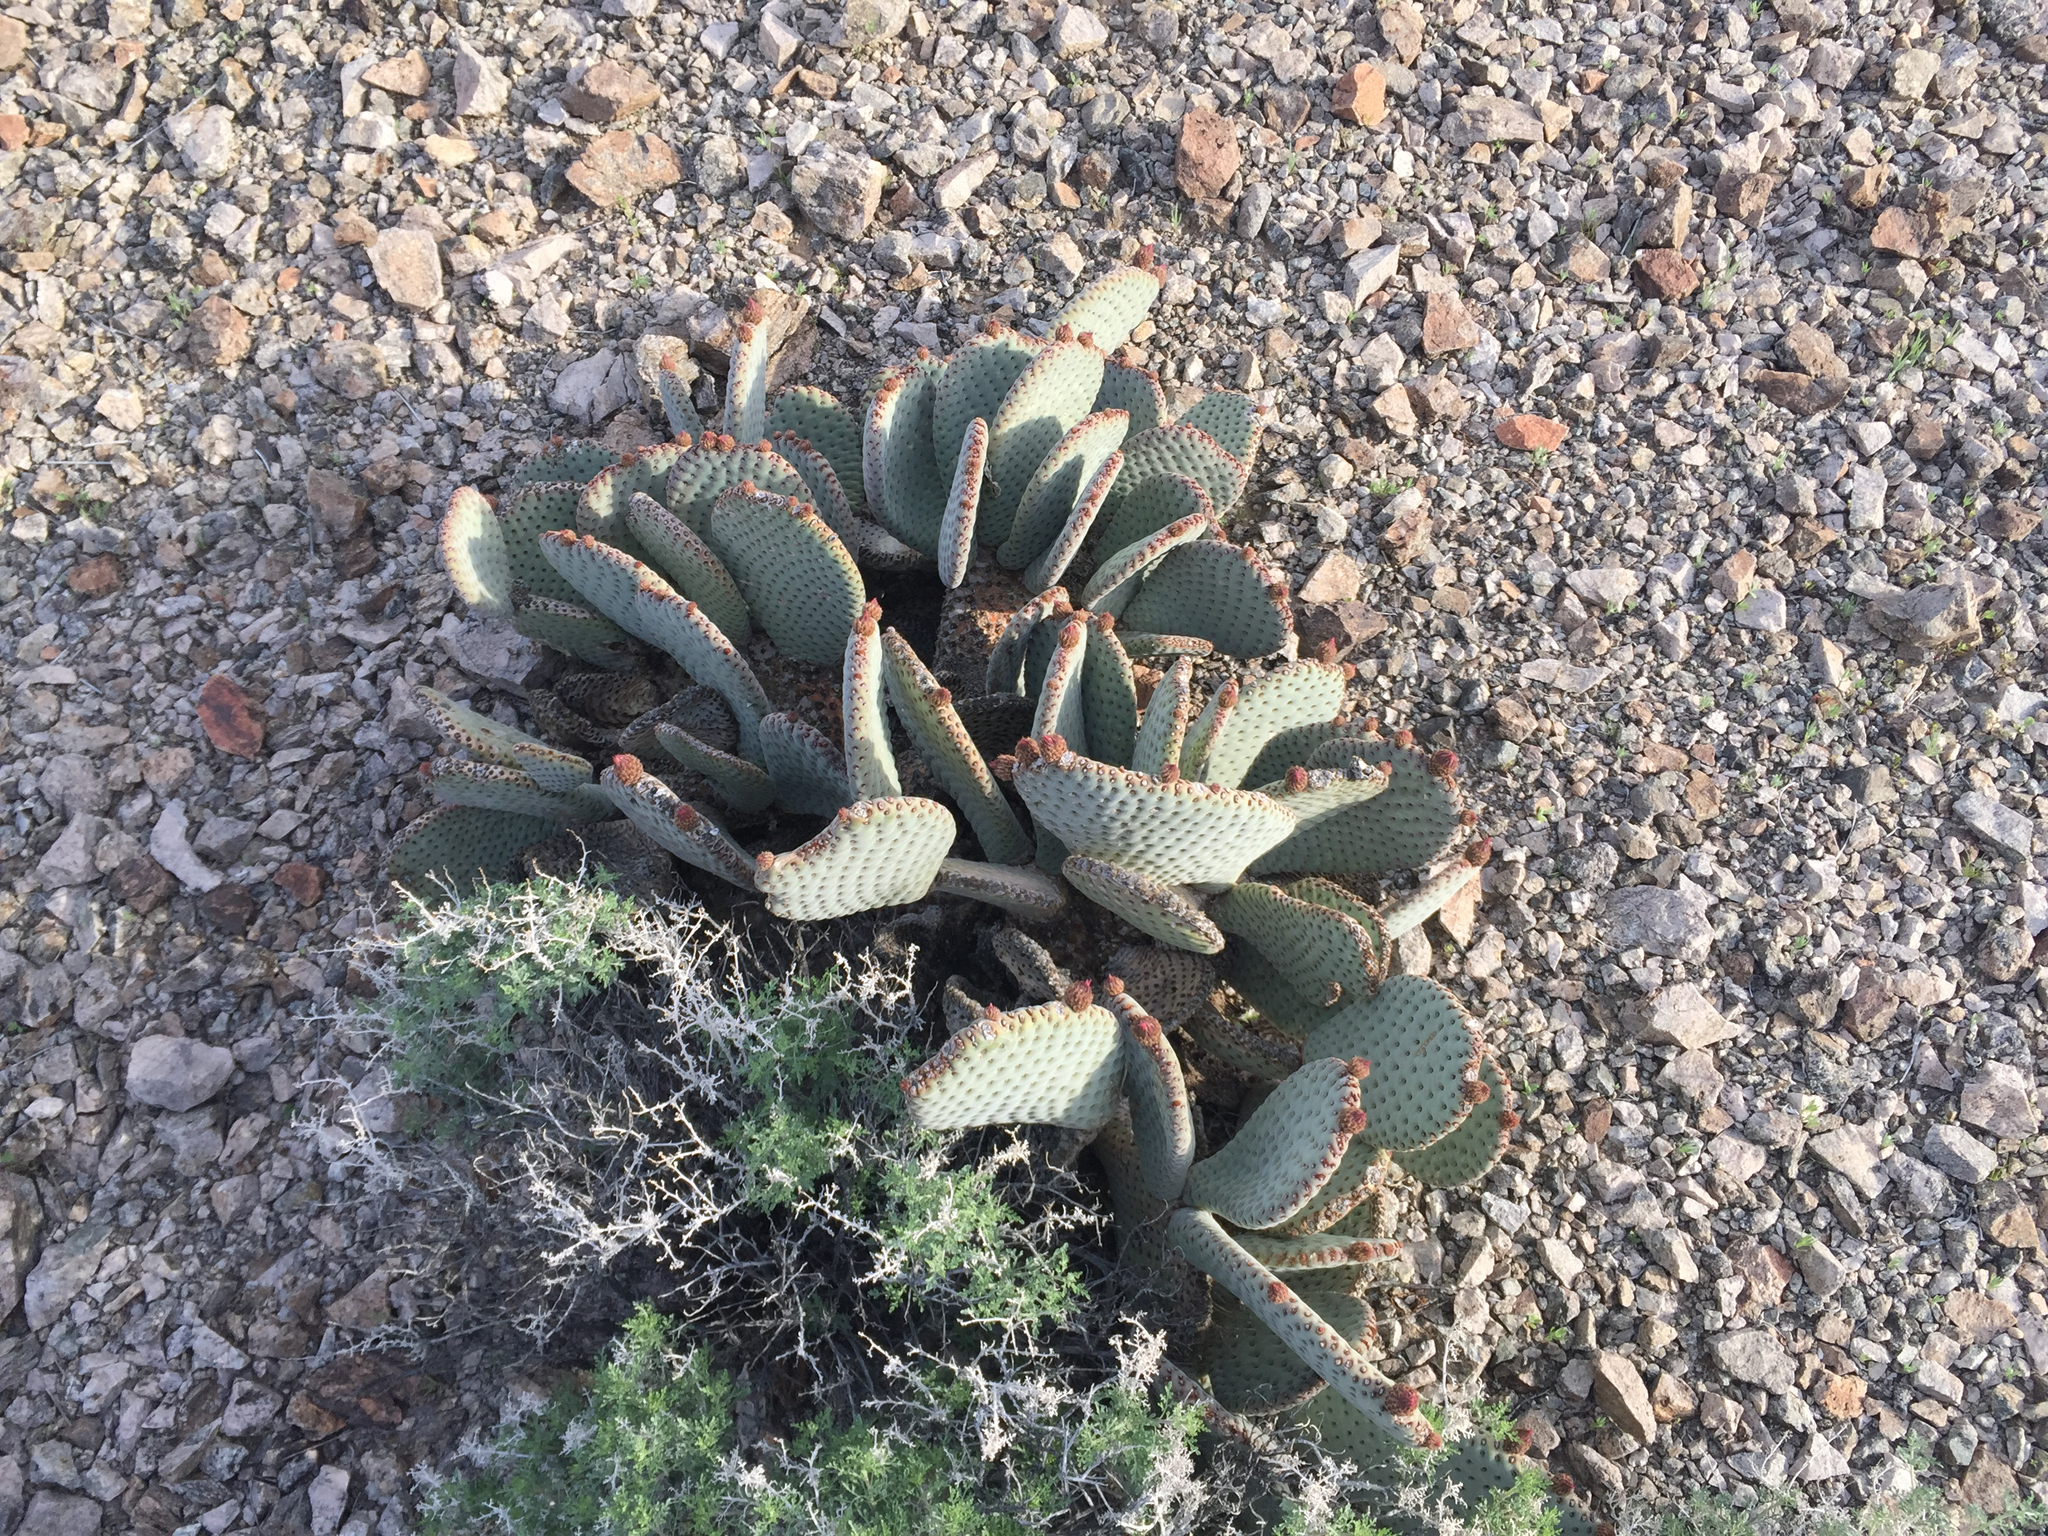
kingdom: Plantae
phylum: Tracheophyta
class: Magnoliopsida
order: Caryophyllales
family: Cactaceae
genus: Opuntia
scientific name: Opuntia basilaris
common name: Beavertail prickly-pear
